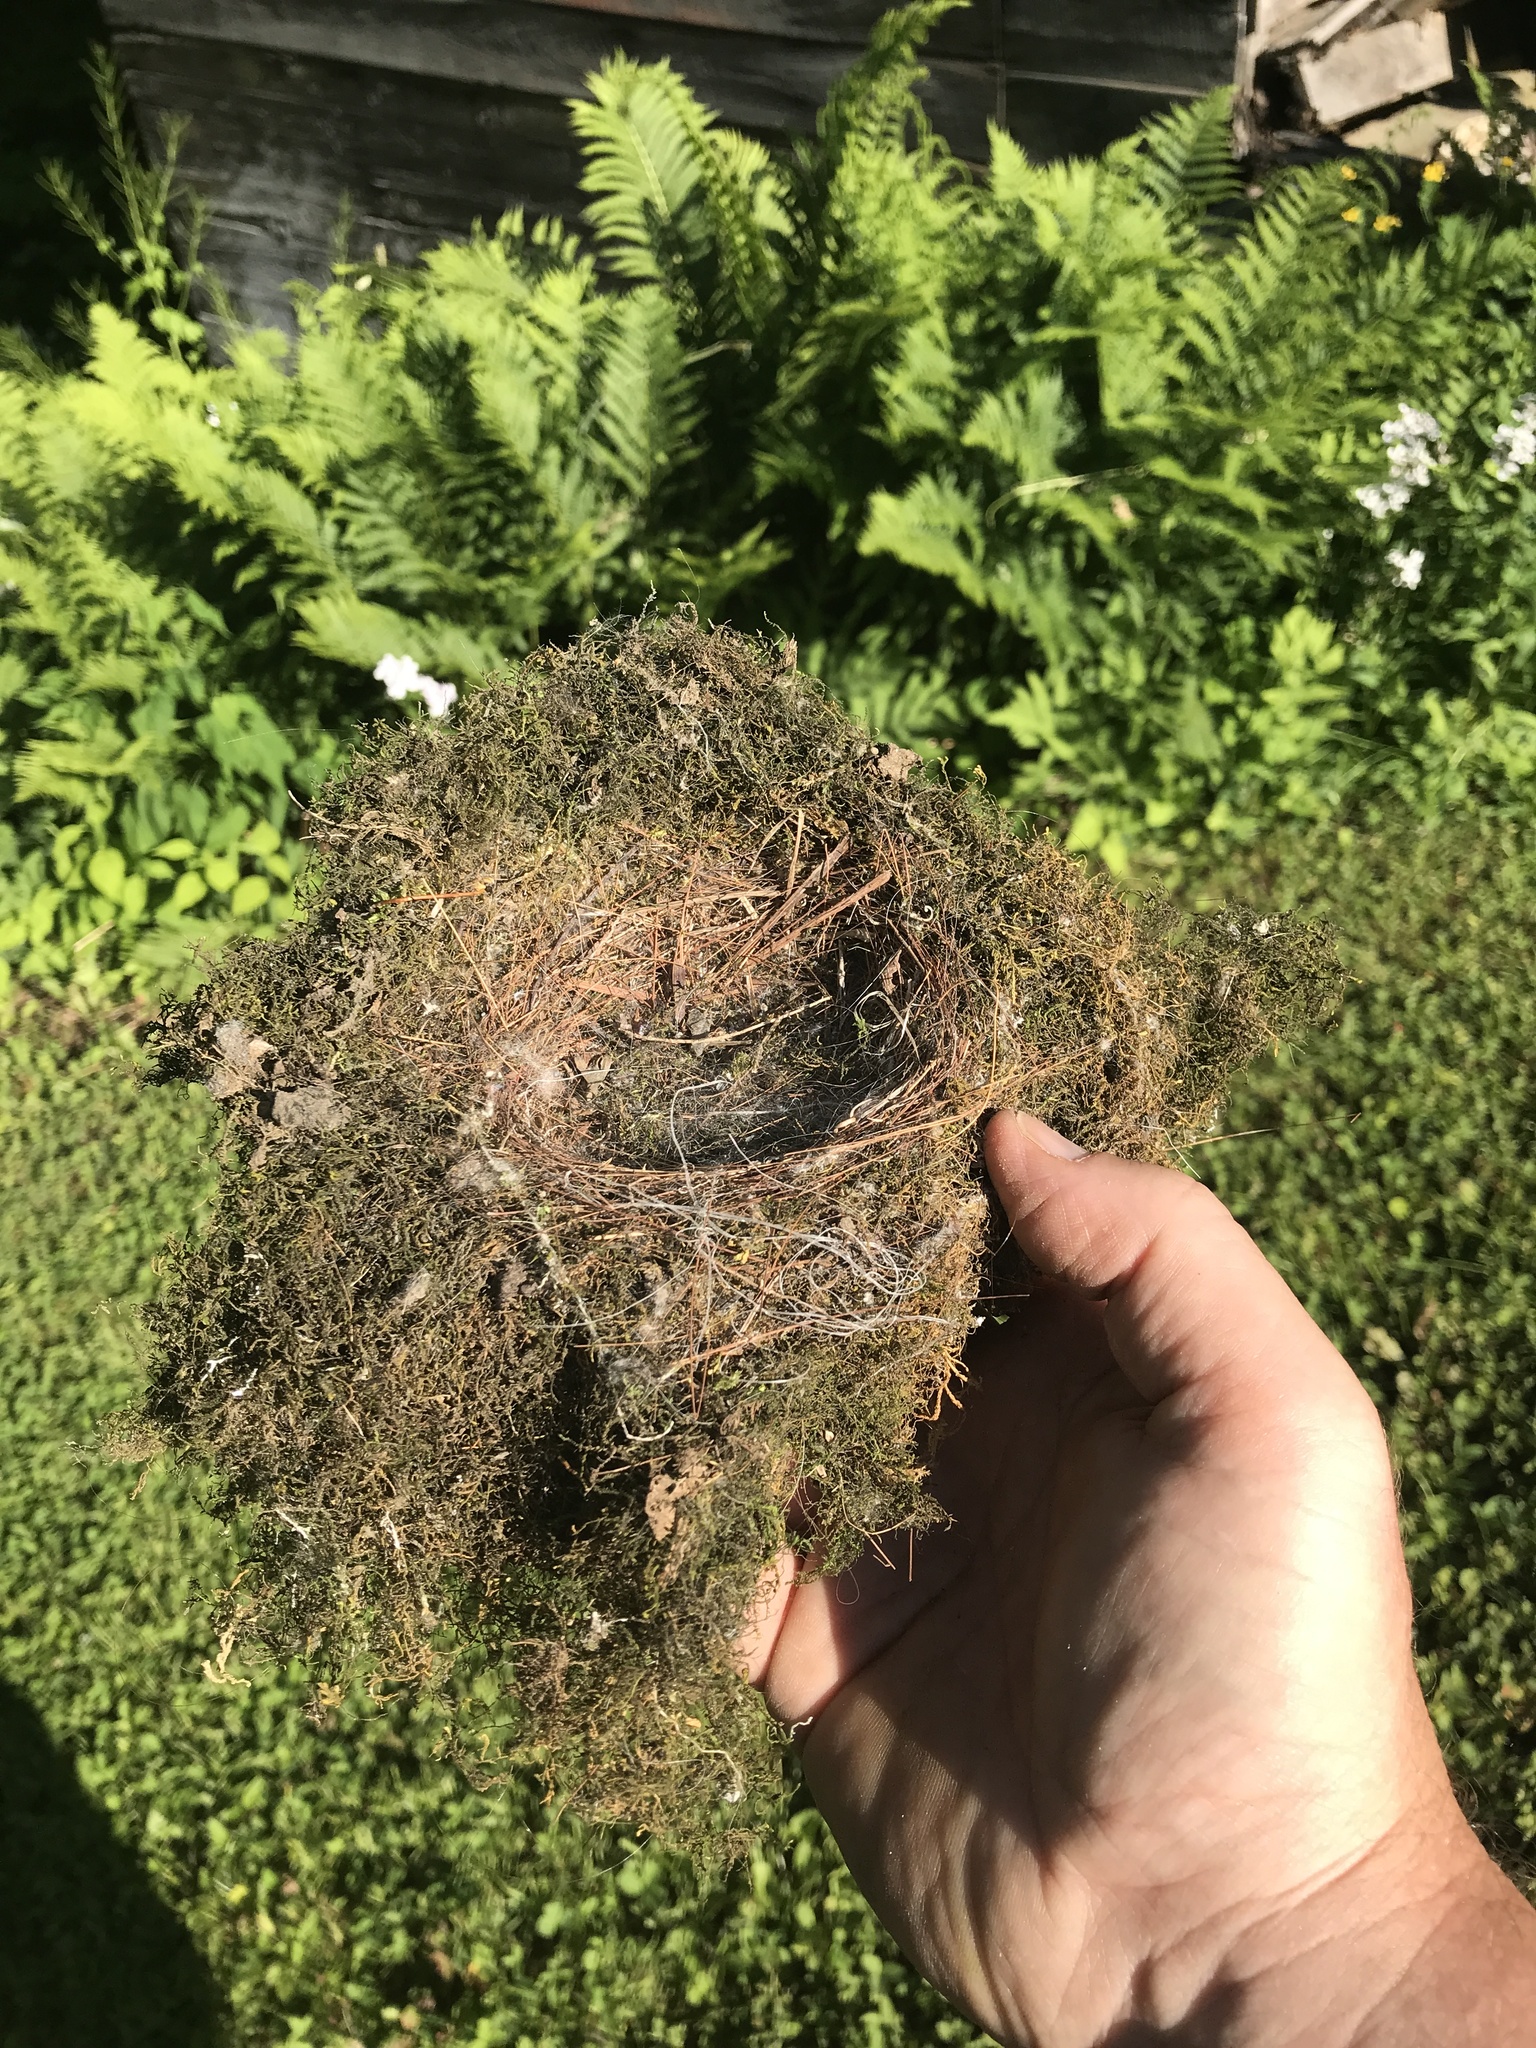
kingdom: Animalia
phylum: Chordata
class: Aves
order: Passeriformes
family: Tyrannidae
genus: Sayornis
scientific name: Sayornis phoebe
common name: Eastern phoebe
